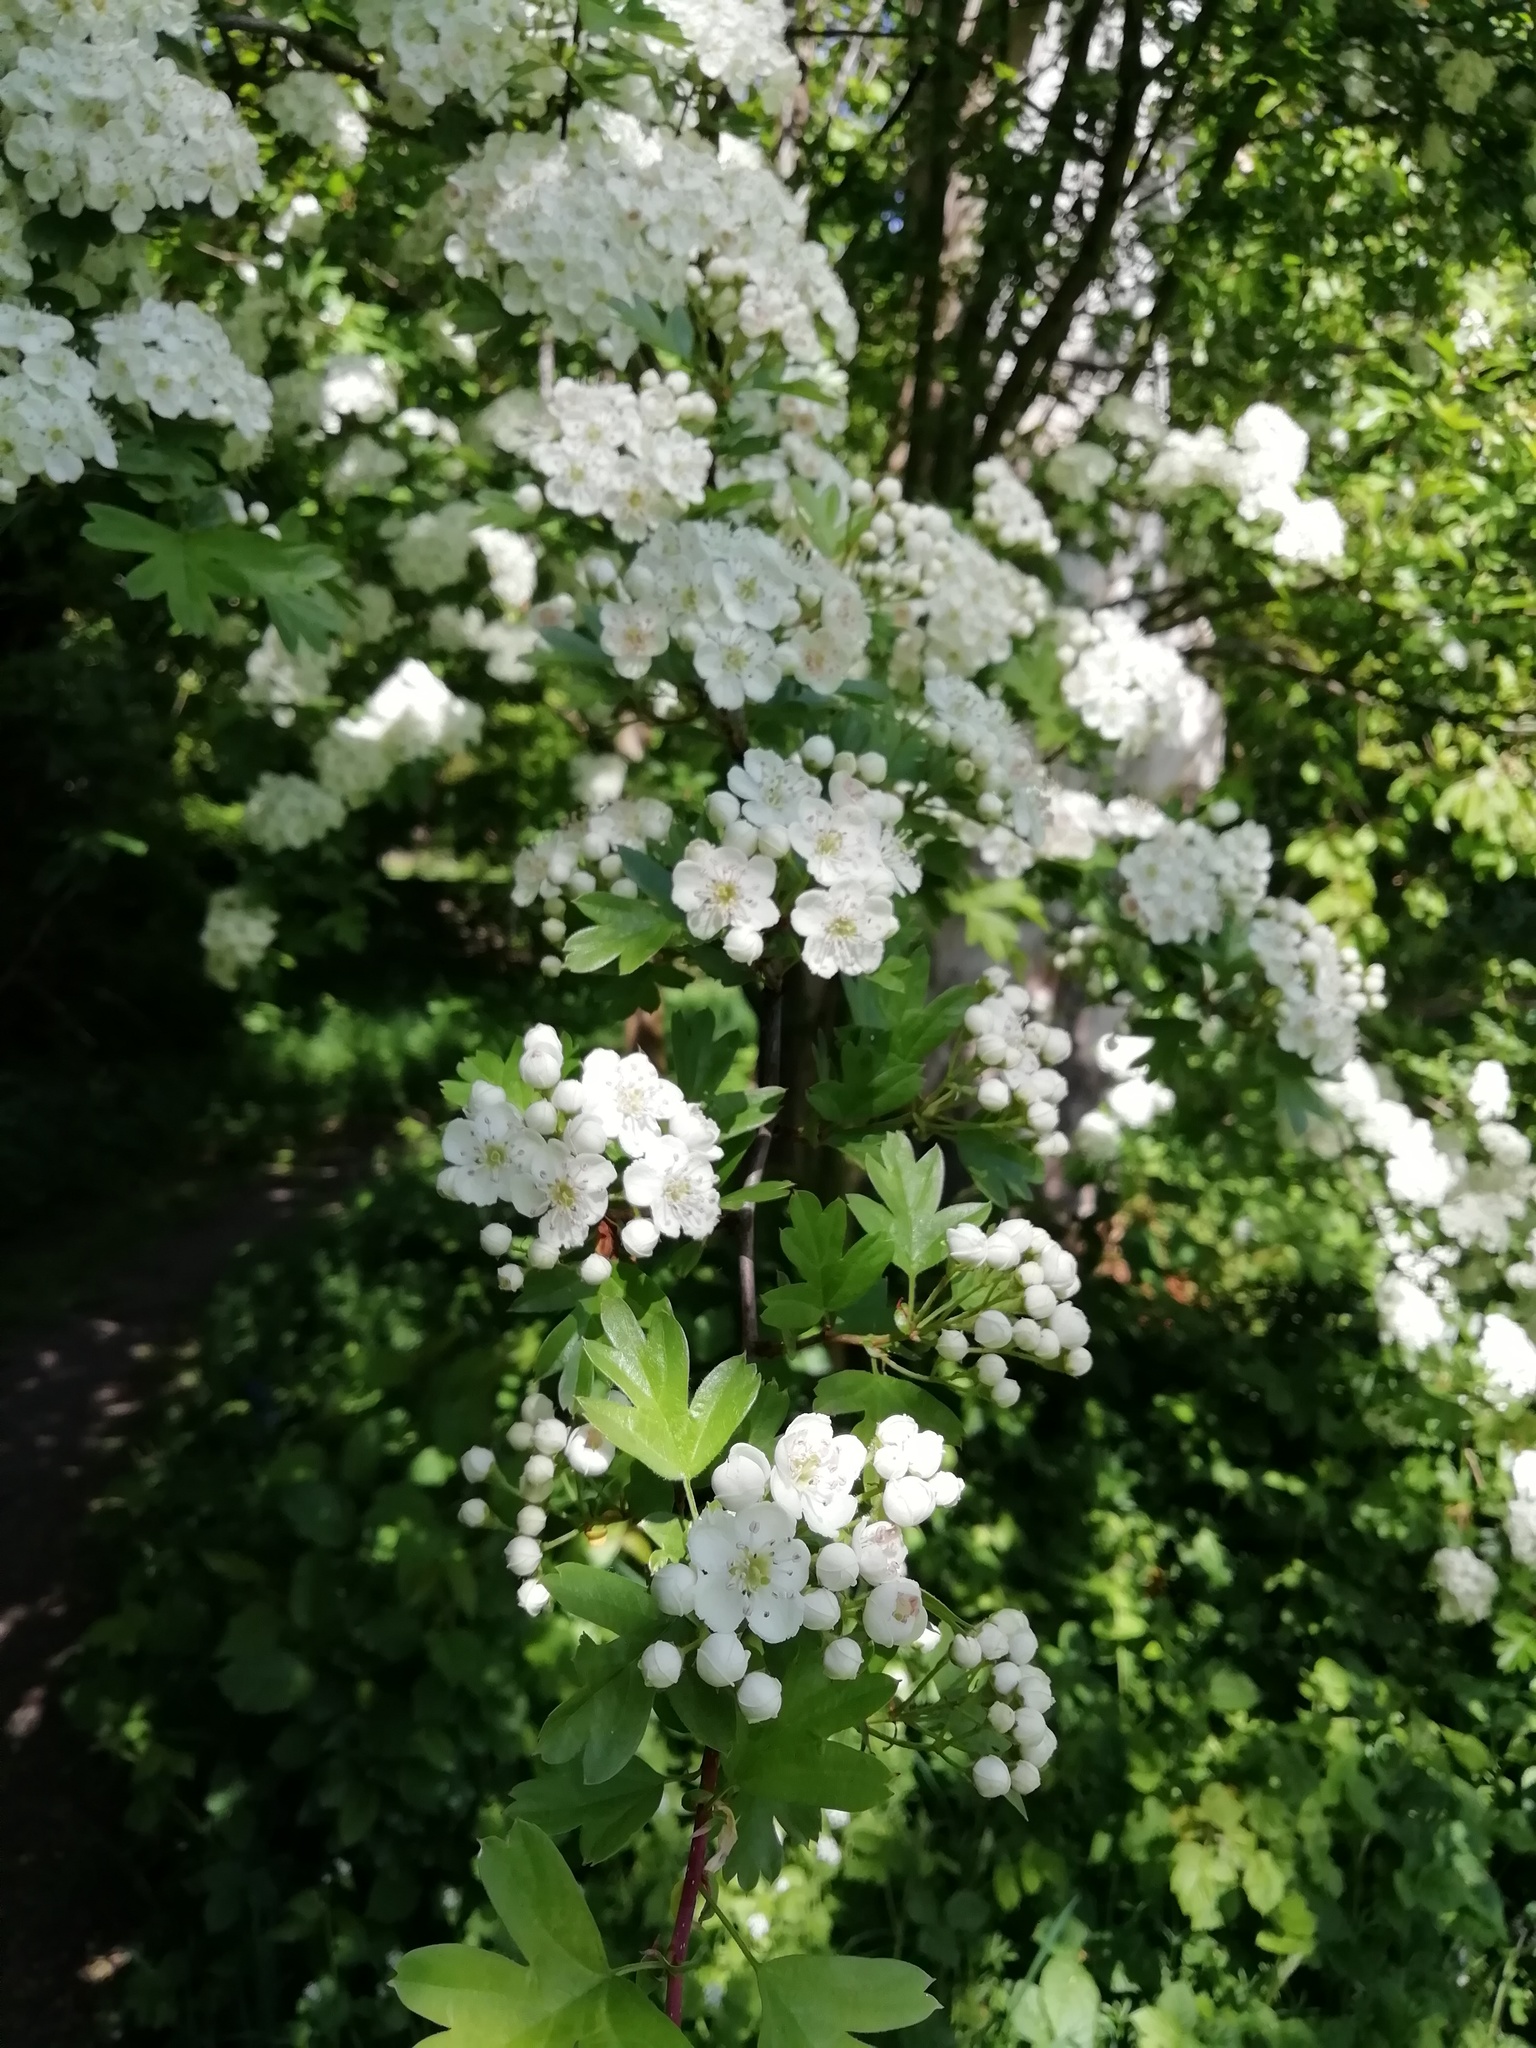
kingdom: Plantae
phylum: Tracheophyta
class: Magnoliopsida
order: Rosales
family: Rosaceae
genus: Crataegus
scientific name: Crataegus monogyna
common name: Hawthorn
